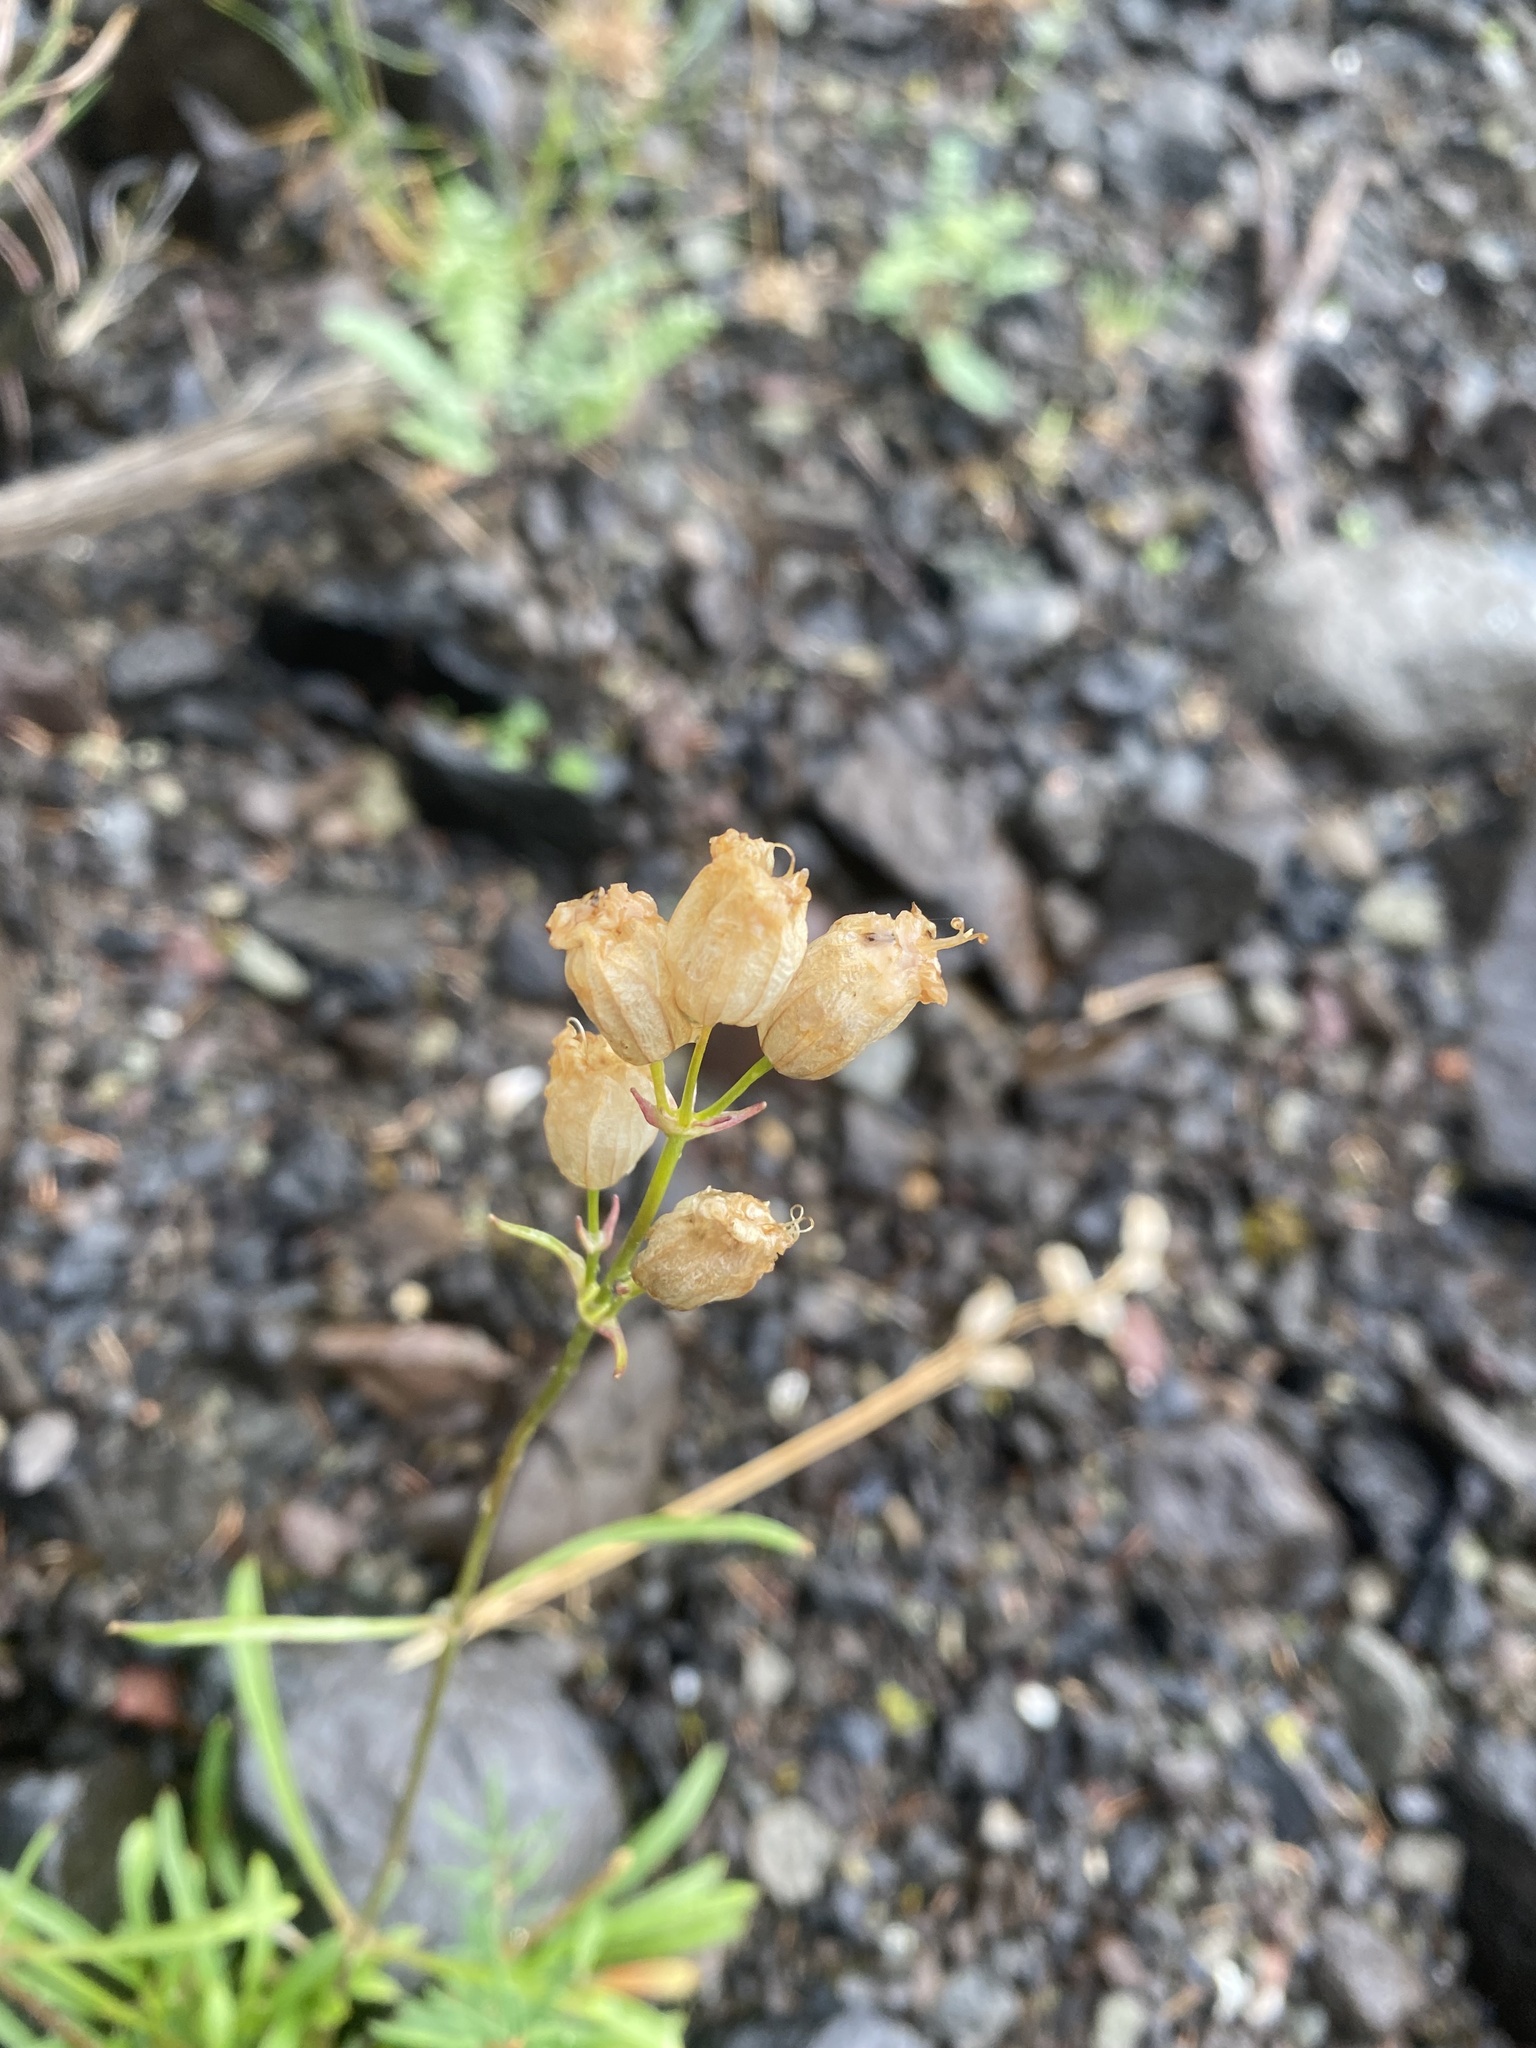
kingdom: Plantae
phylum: Tracheophyta
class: Magnoliopsida
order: Caryophyllales
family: Caryophyllaceae
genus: Silene
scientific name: Silene chamarensis
